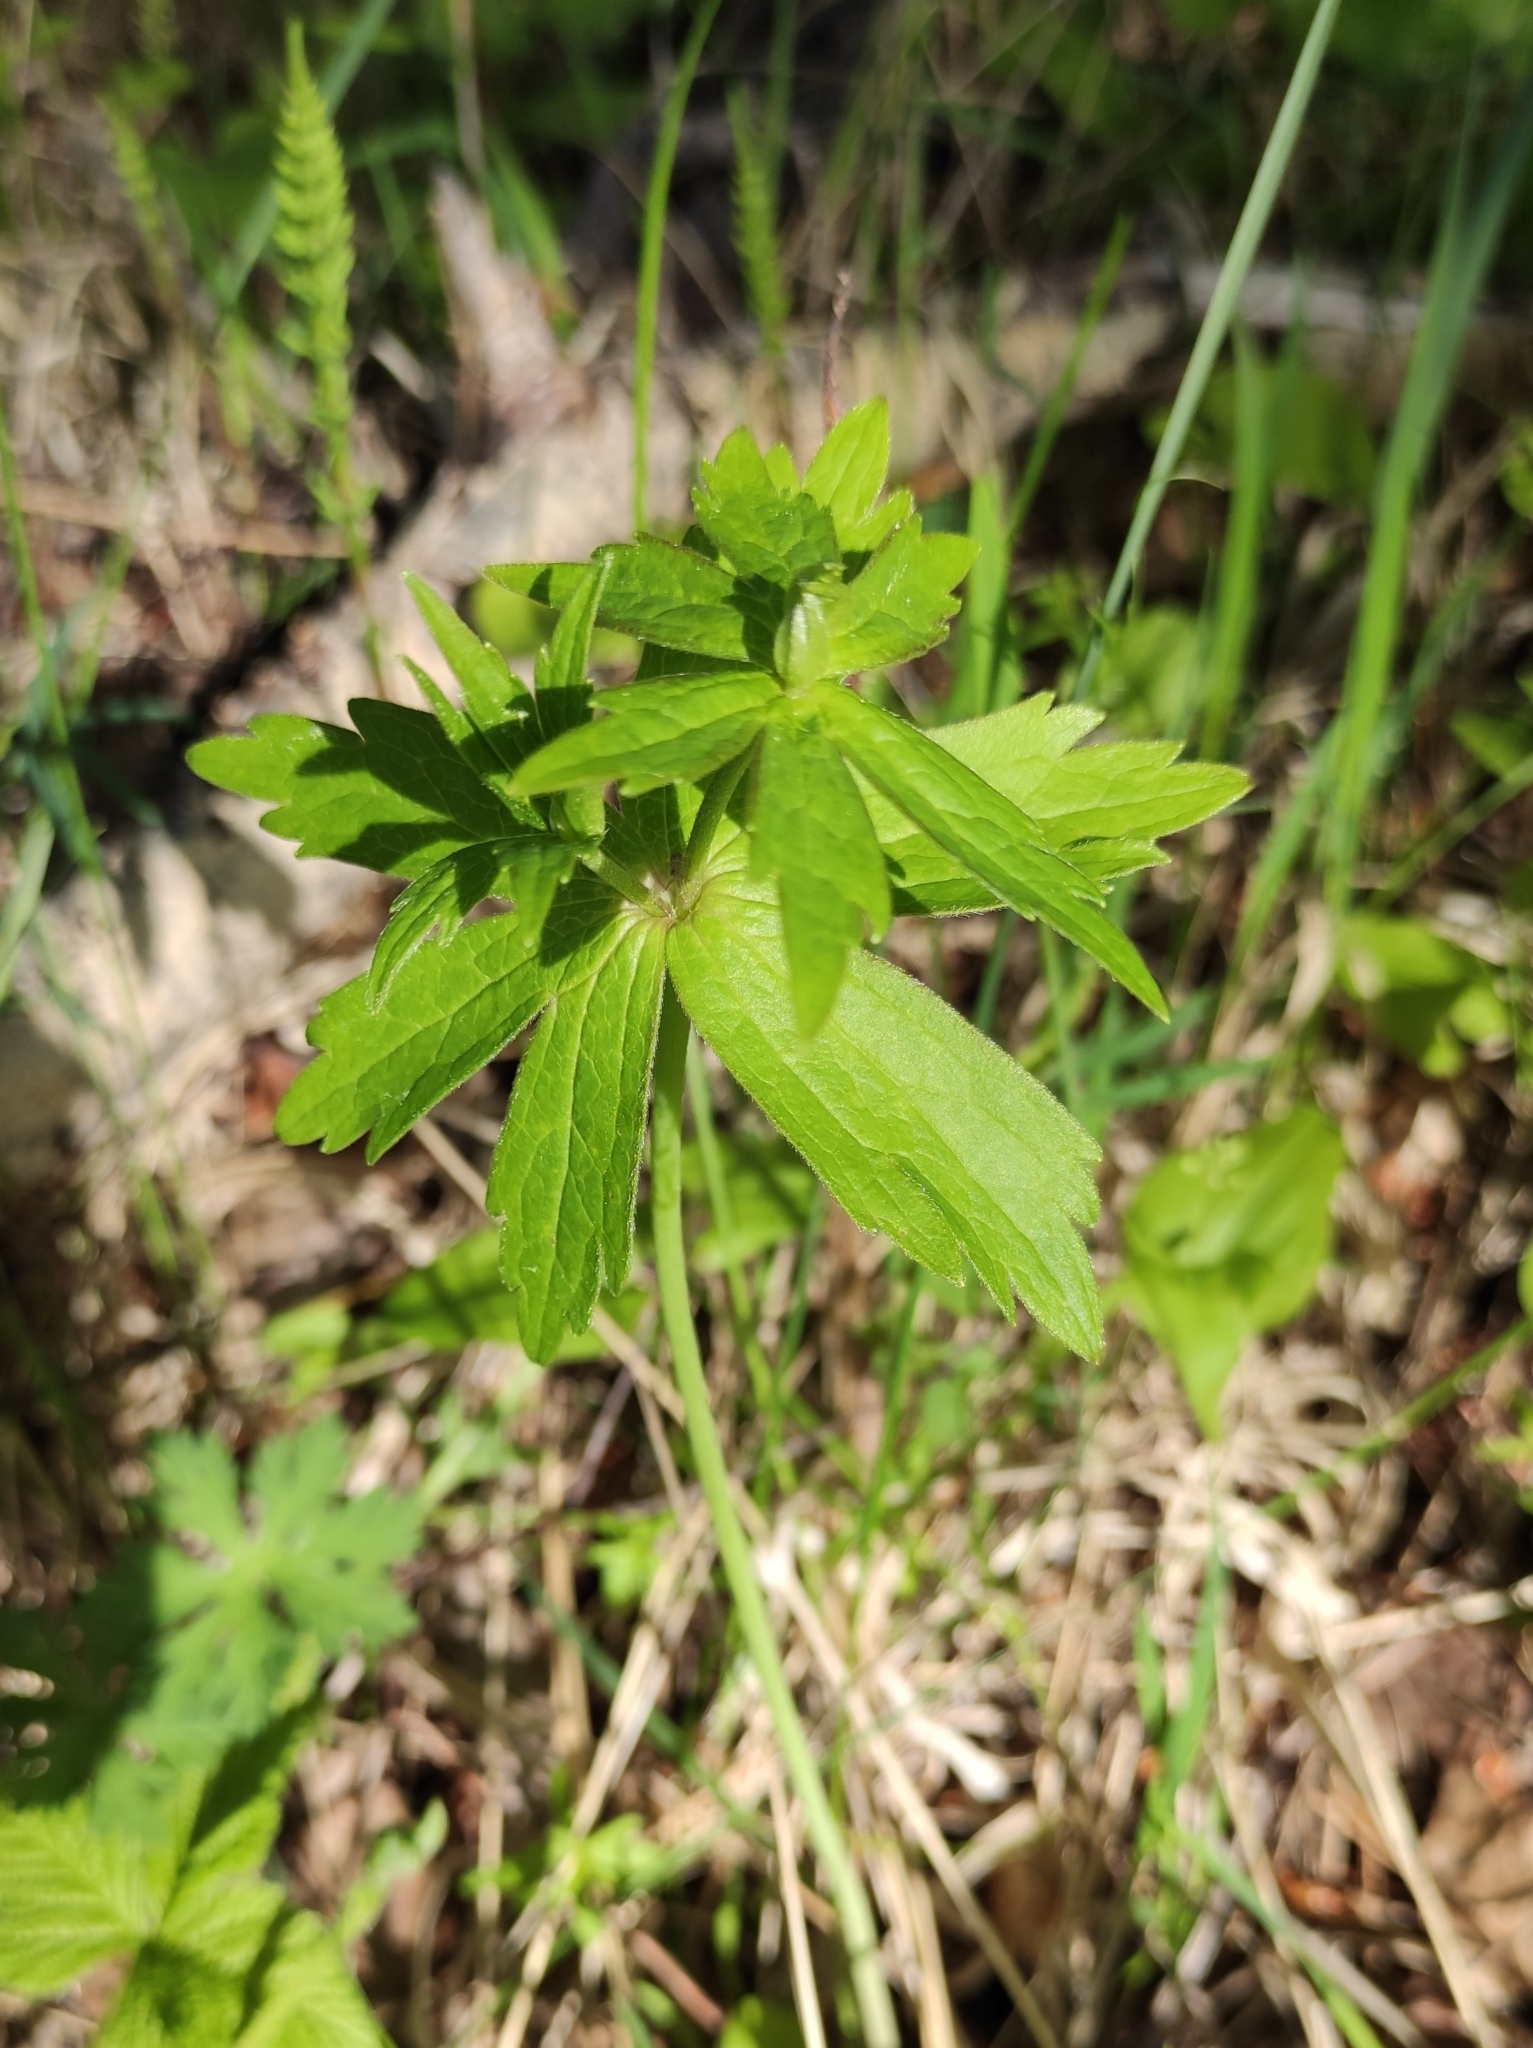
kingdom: Plantae
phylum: Tracheophyta
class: Magnoliopsida
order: Ranunculales
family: Ranunculaceae
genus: Anemonastrum
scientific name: Anemonastrum dichotomum
